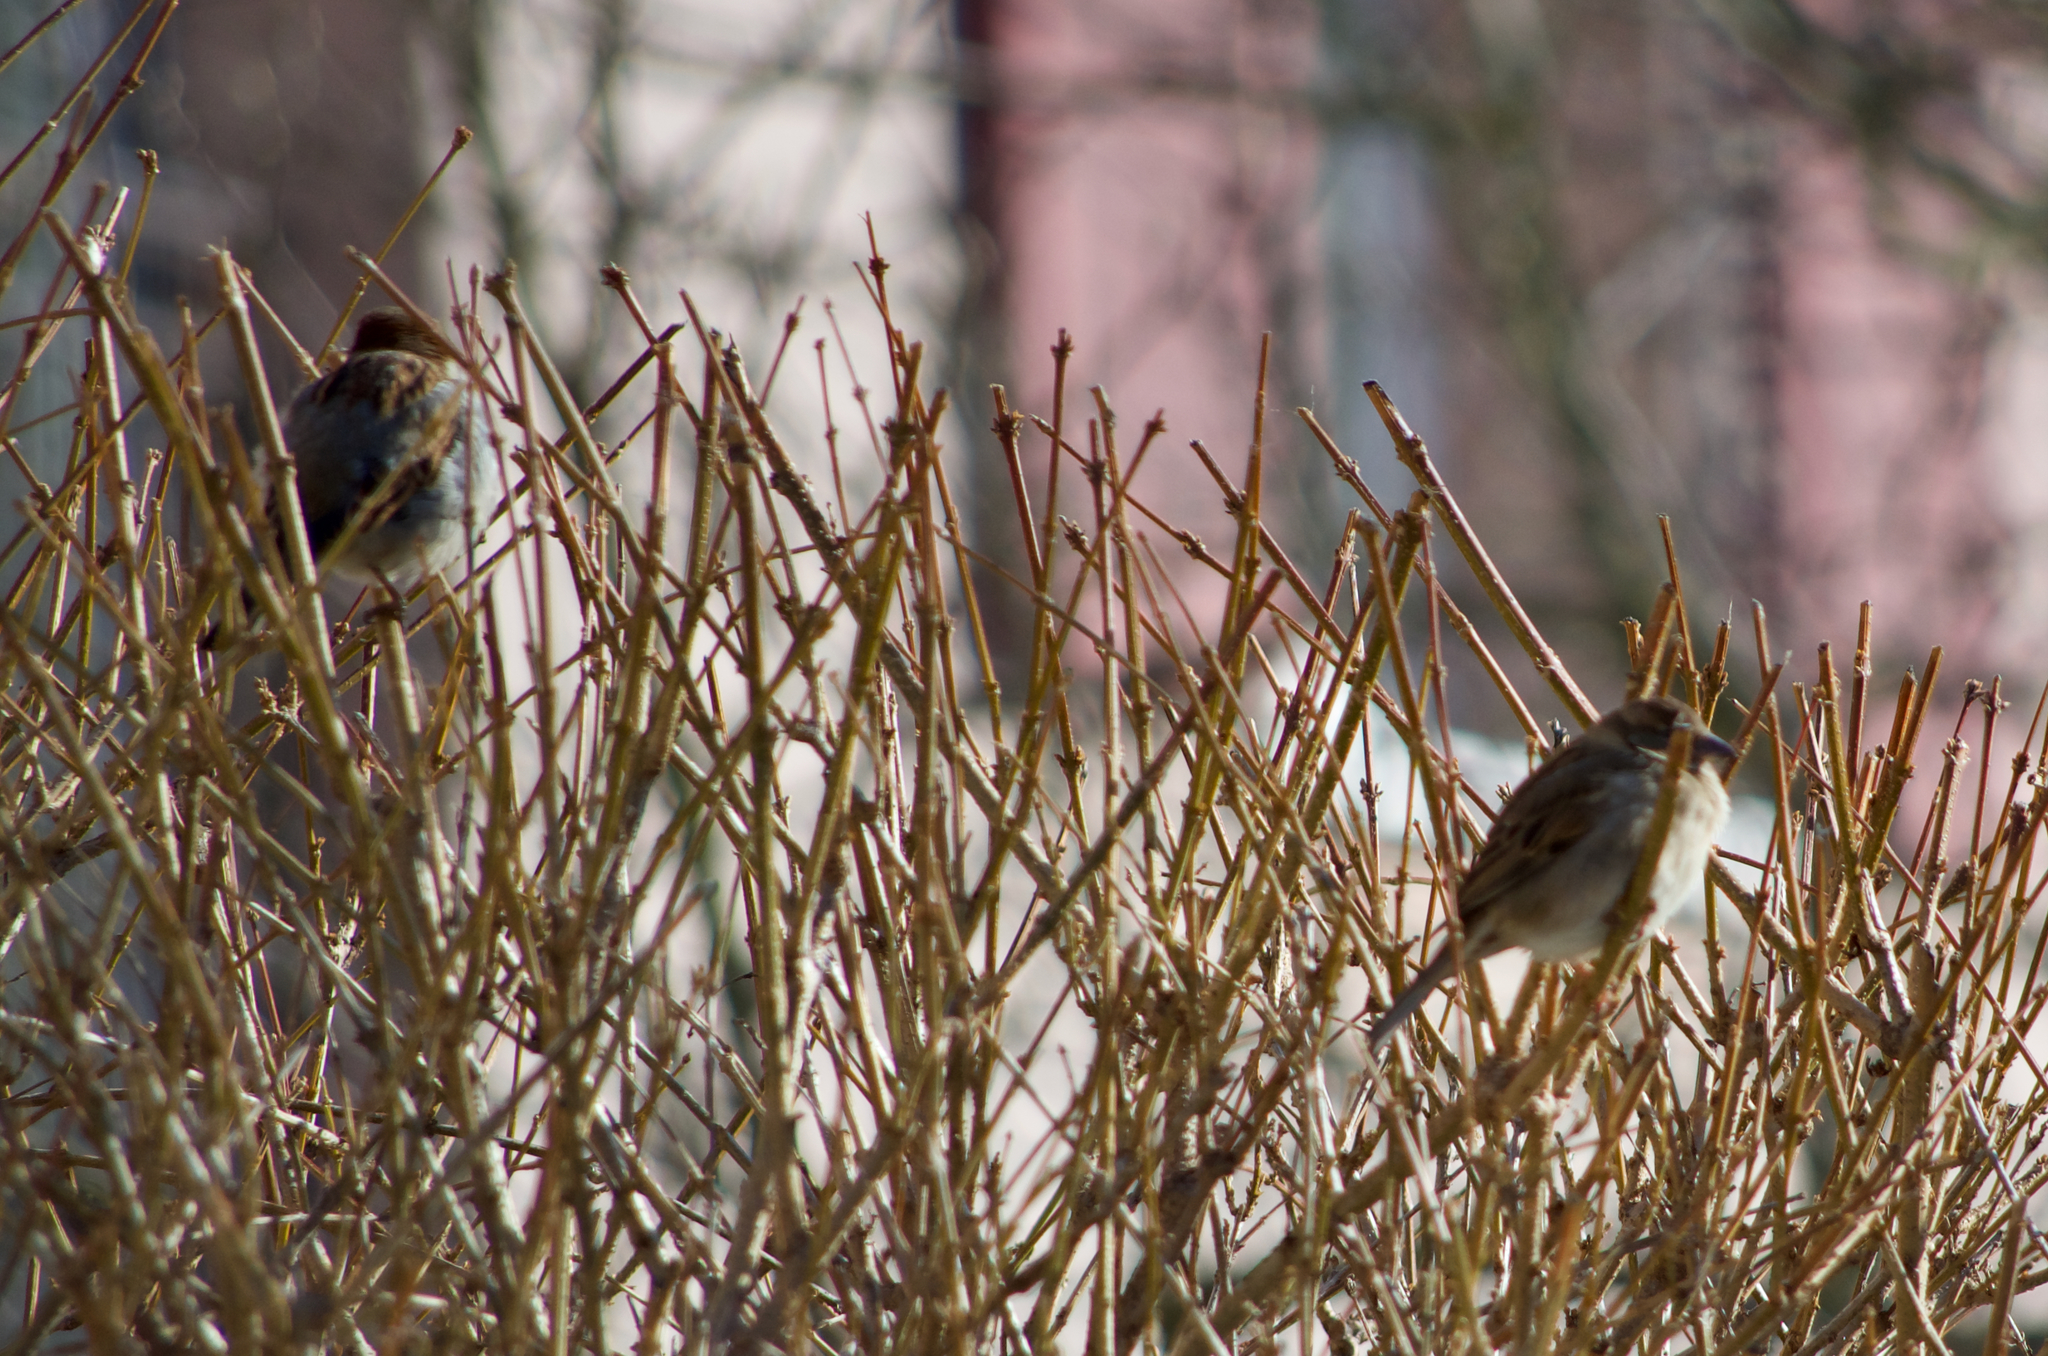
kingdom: Animalia
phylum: Chordata
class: Aves
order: Passeriformes
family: Passeridae
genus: Passer
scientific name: Passer domesticus
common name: House sparrow
